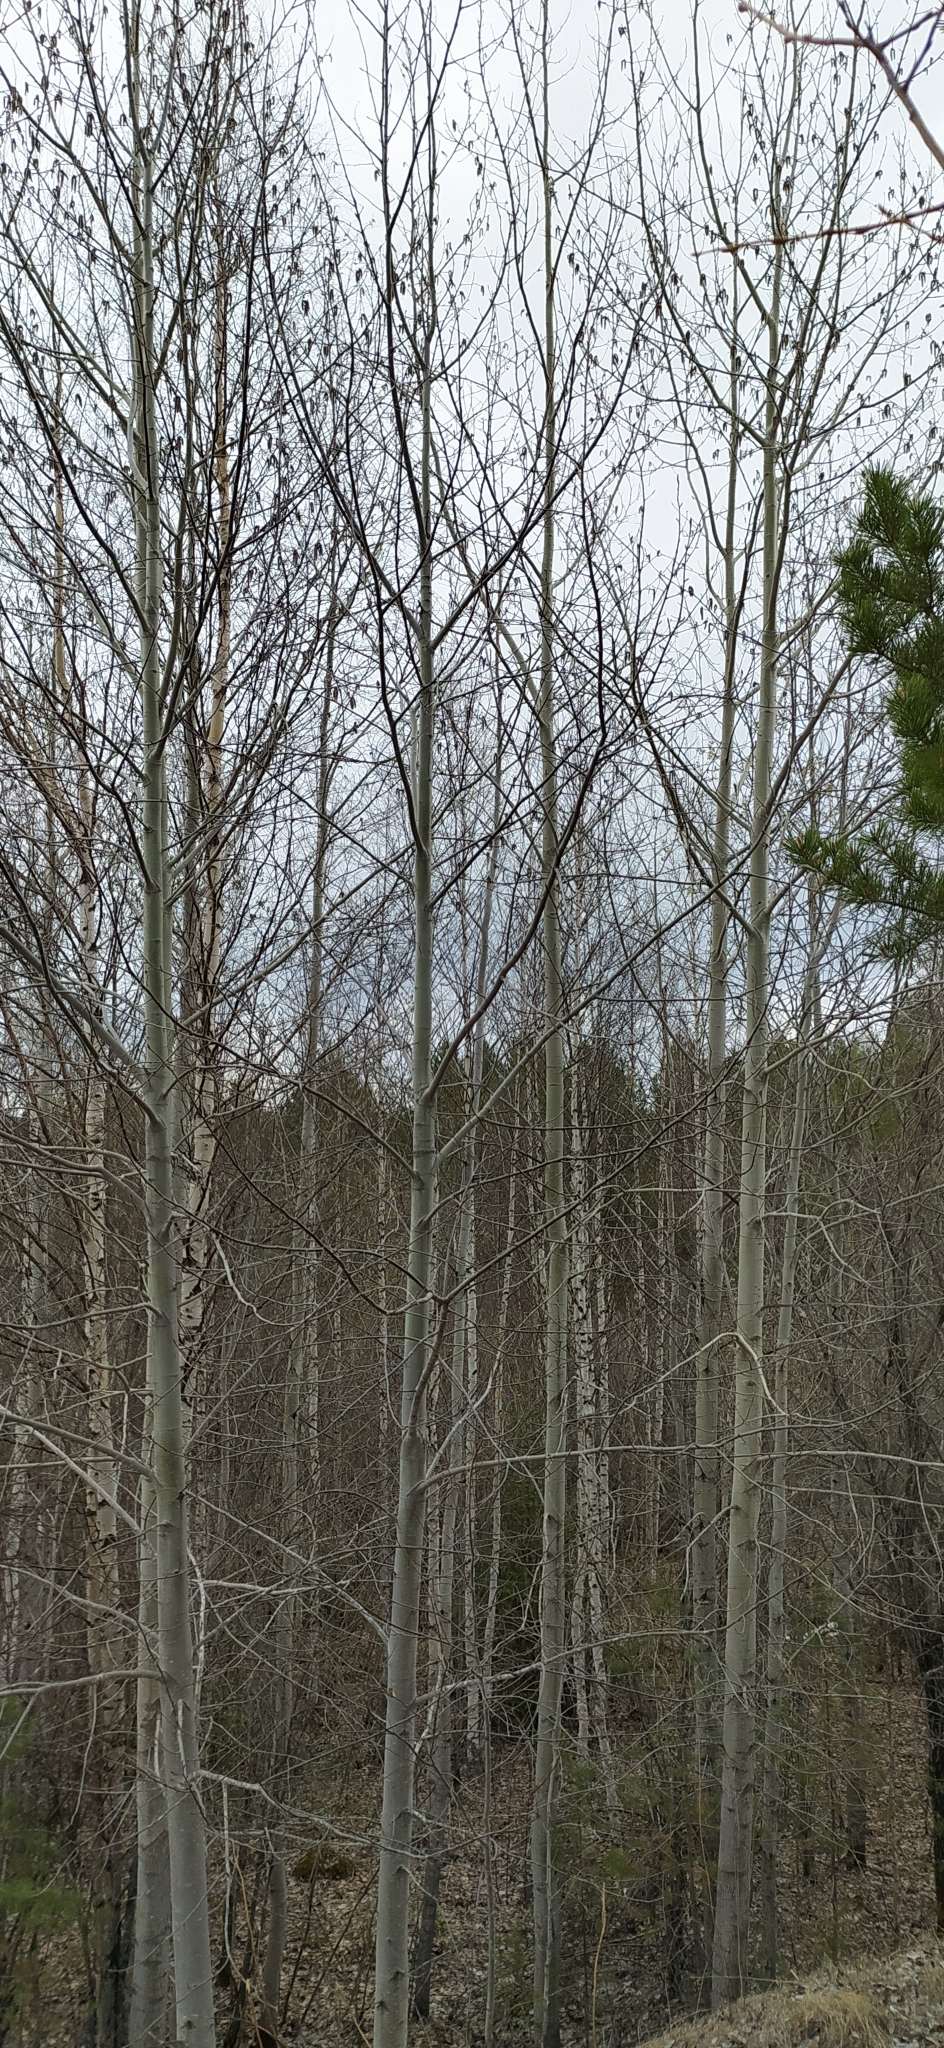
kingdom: Plantae
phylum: Tracheophyta
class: Magnoliopsida
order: Malpighiales
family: Salicaceae
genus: Populus
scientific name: Populus tremula
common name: European aspen
